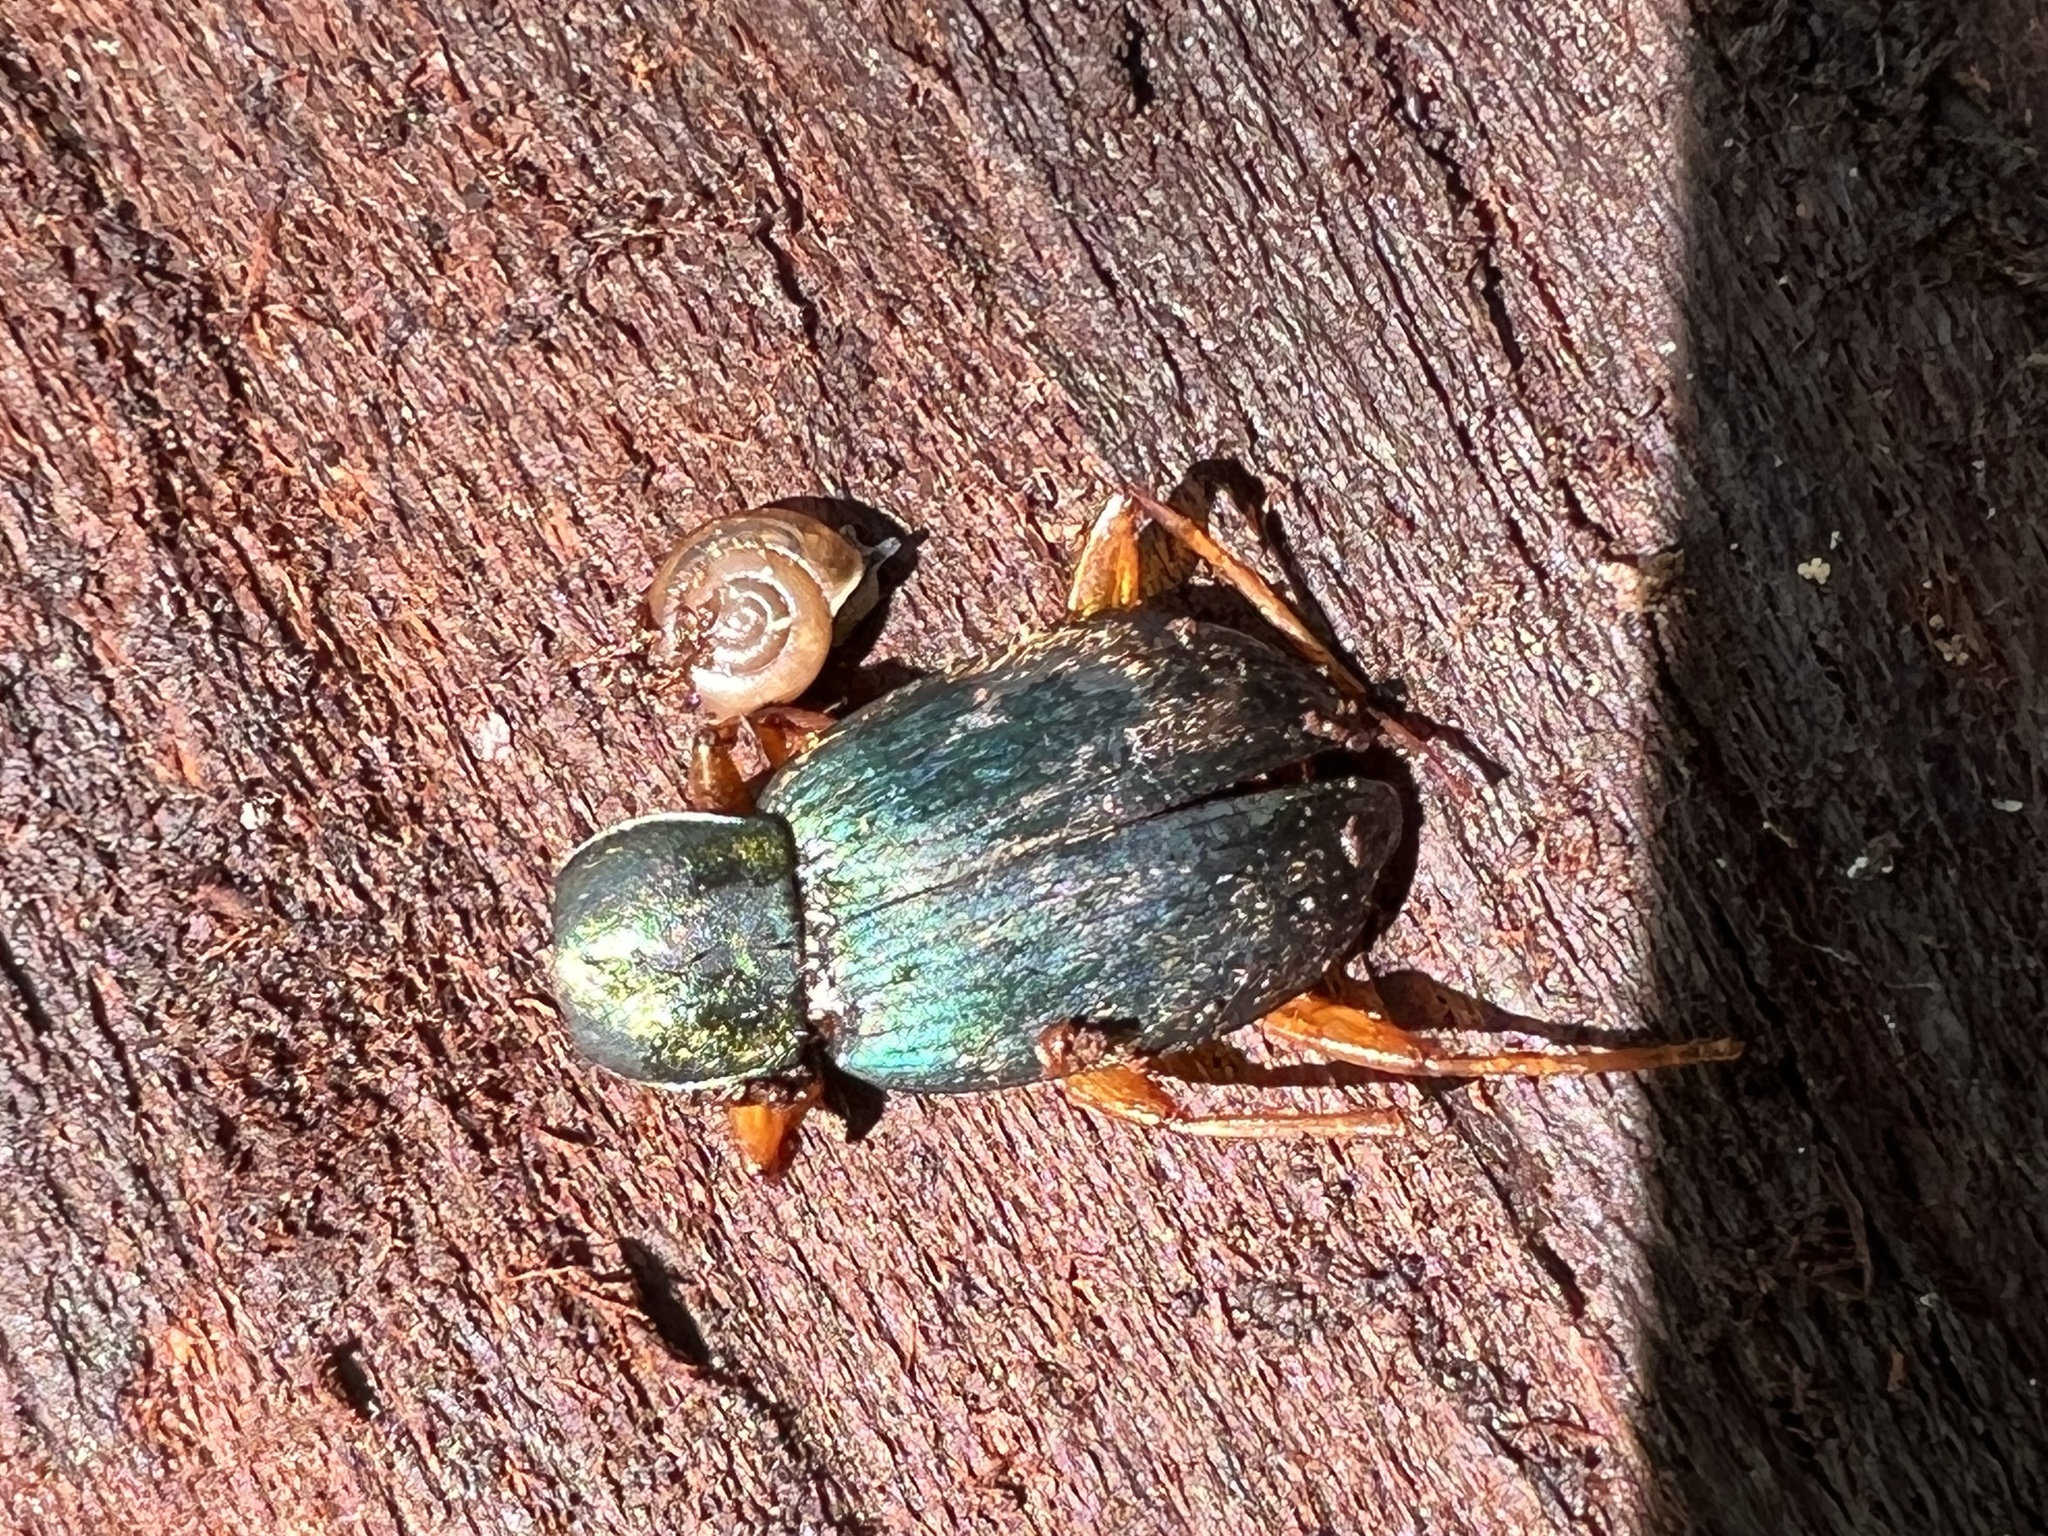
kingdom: Animalia
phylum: Arthropoda
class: Insecta
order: Coleoptera
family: Carabidae
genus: Chlaenius
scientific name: Chlaenius aestivus
